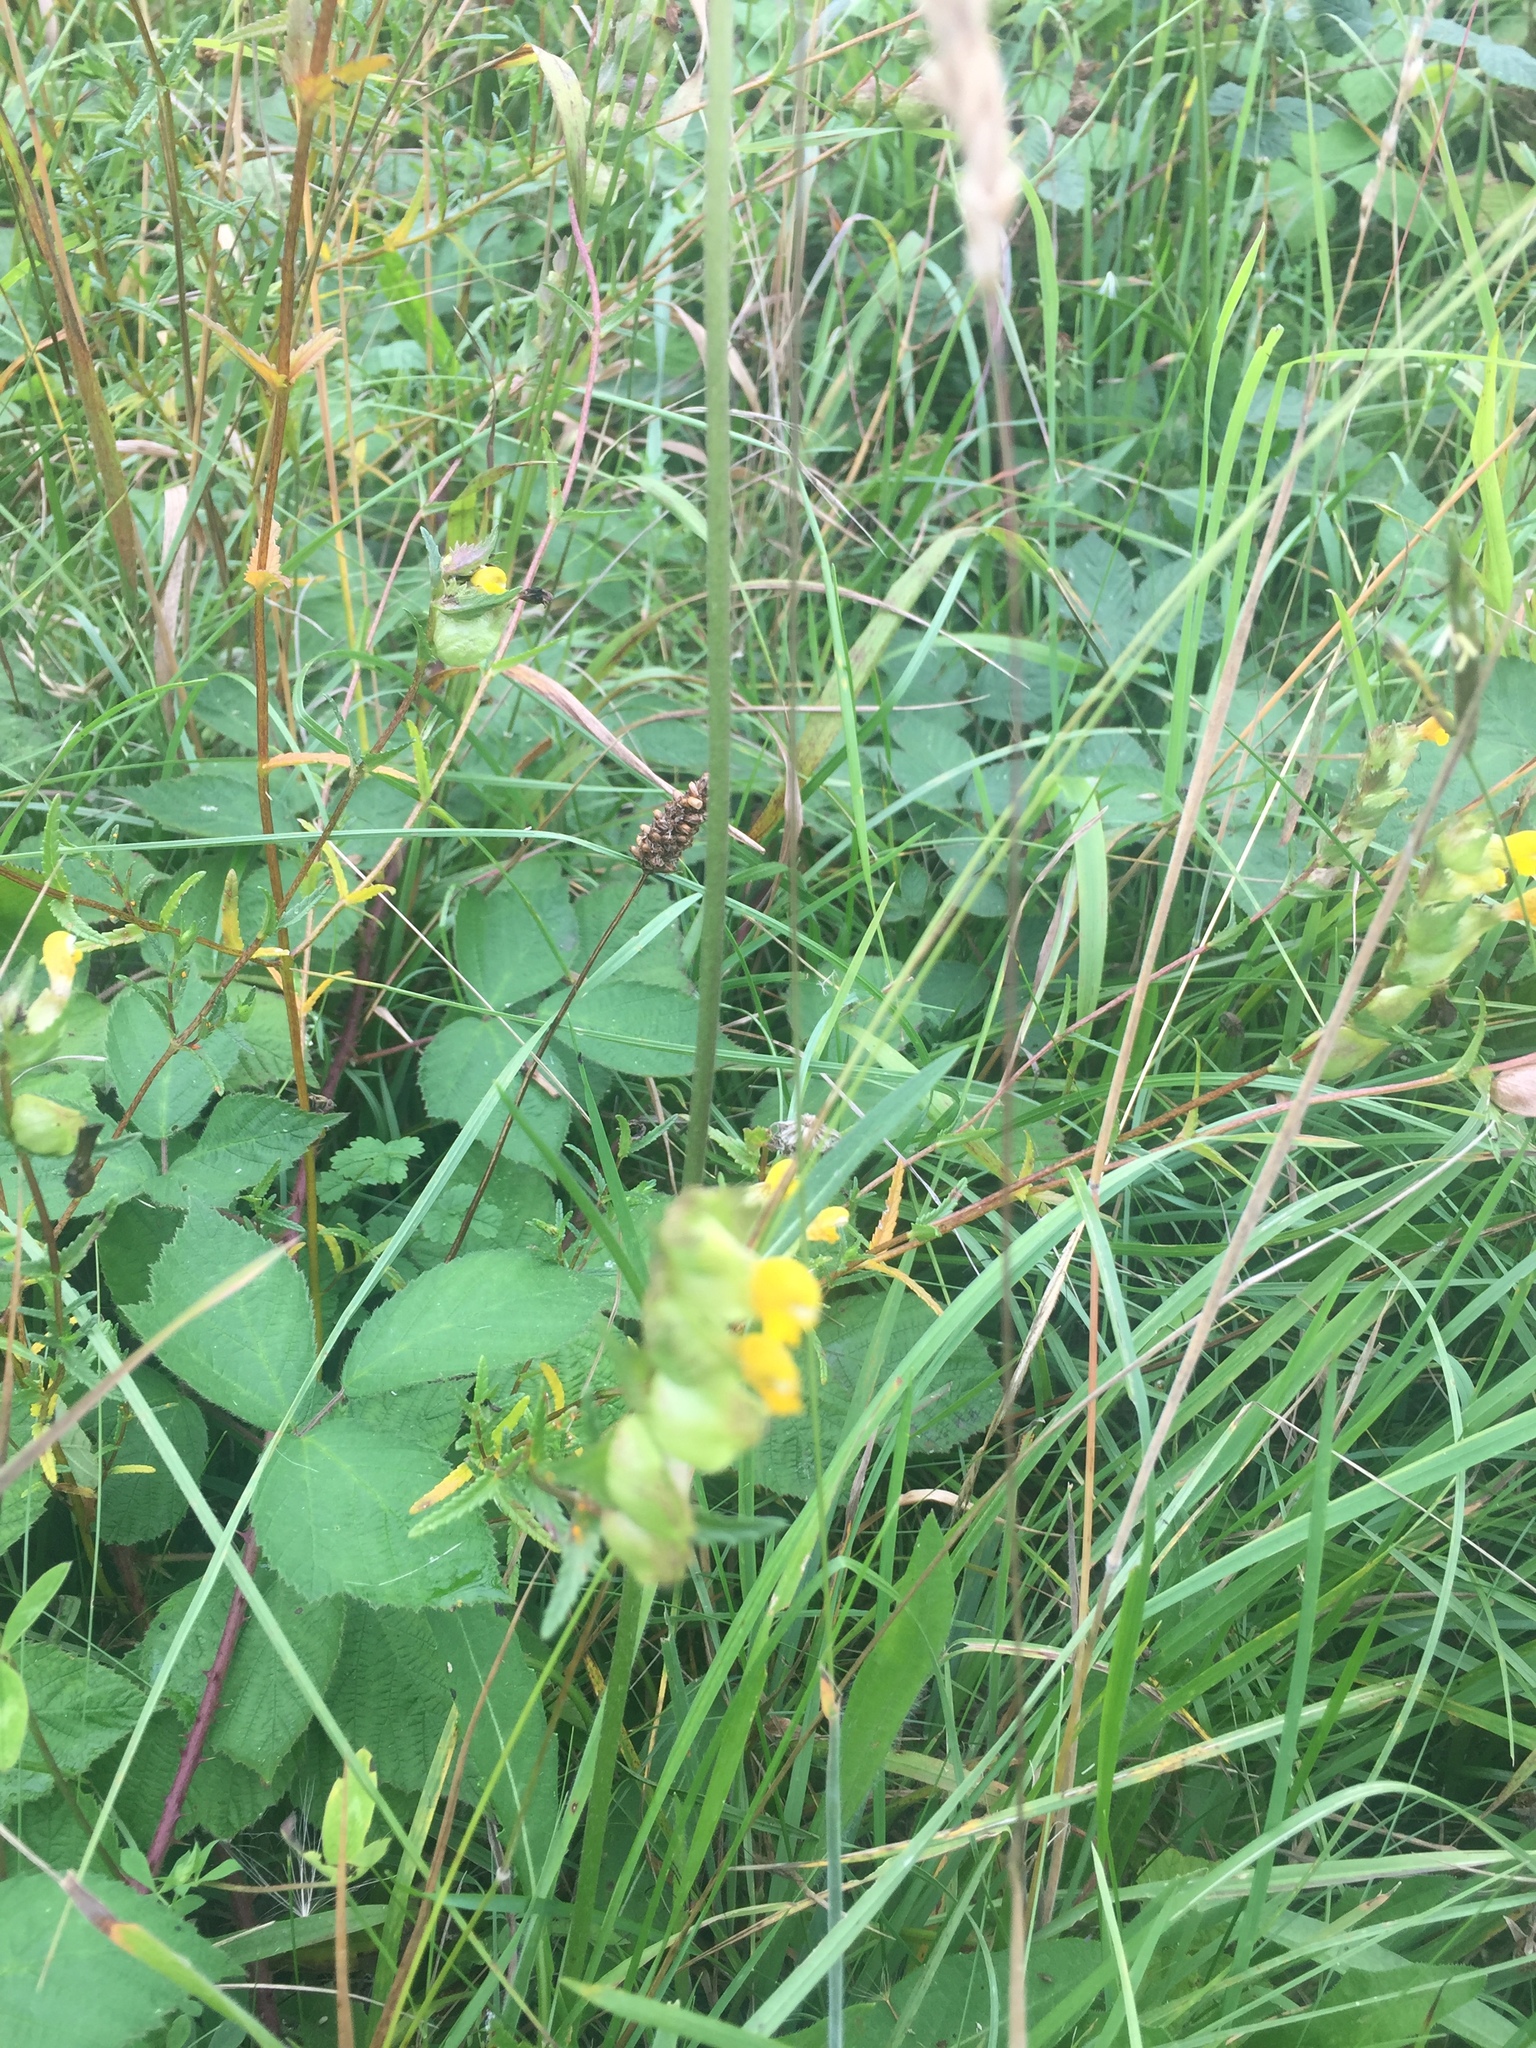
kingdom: Plantae
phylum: Tracheophyta
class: Magnoliopsida
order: Lamiales
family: Orobanchaceae
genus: Rhinanthus
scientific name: Rhinanthus minor
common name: Yellow-rattle
